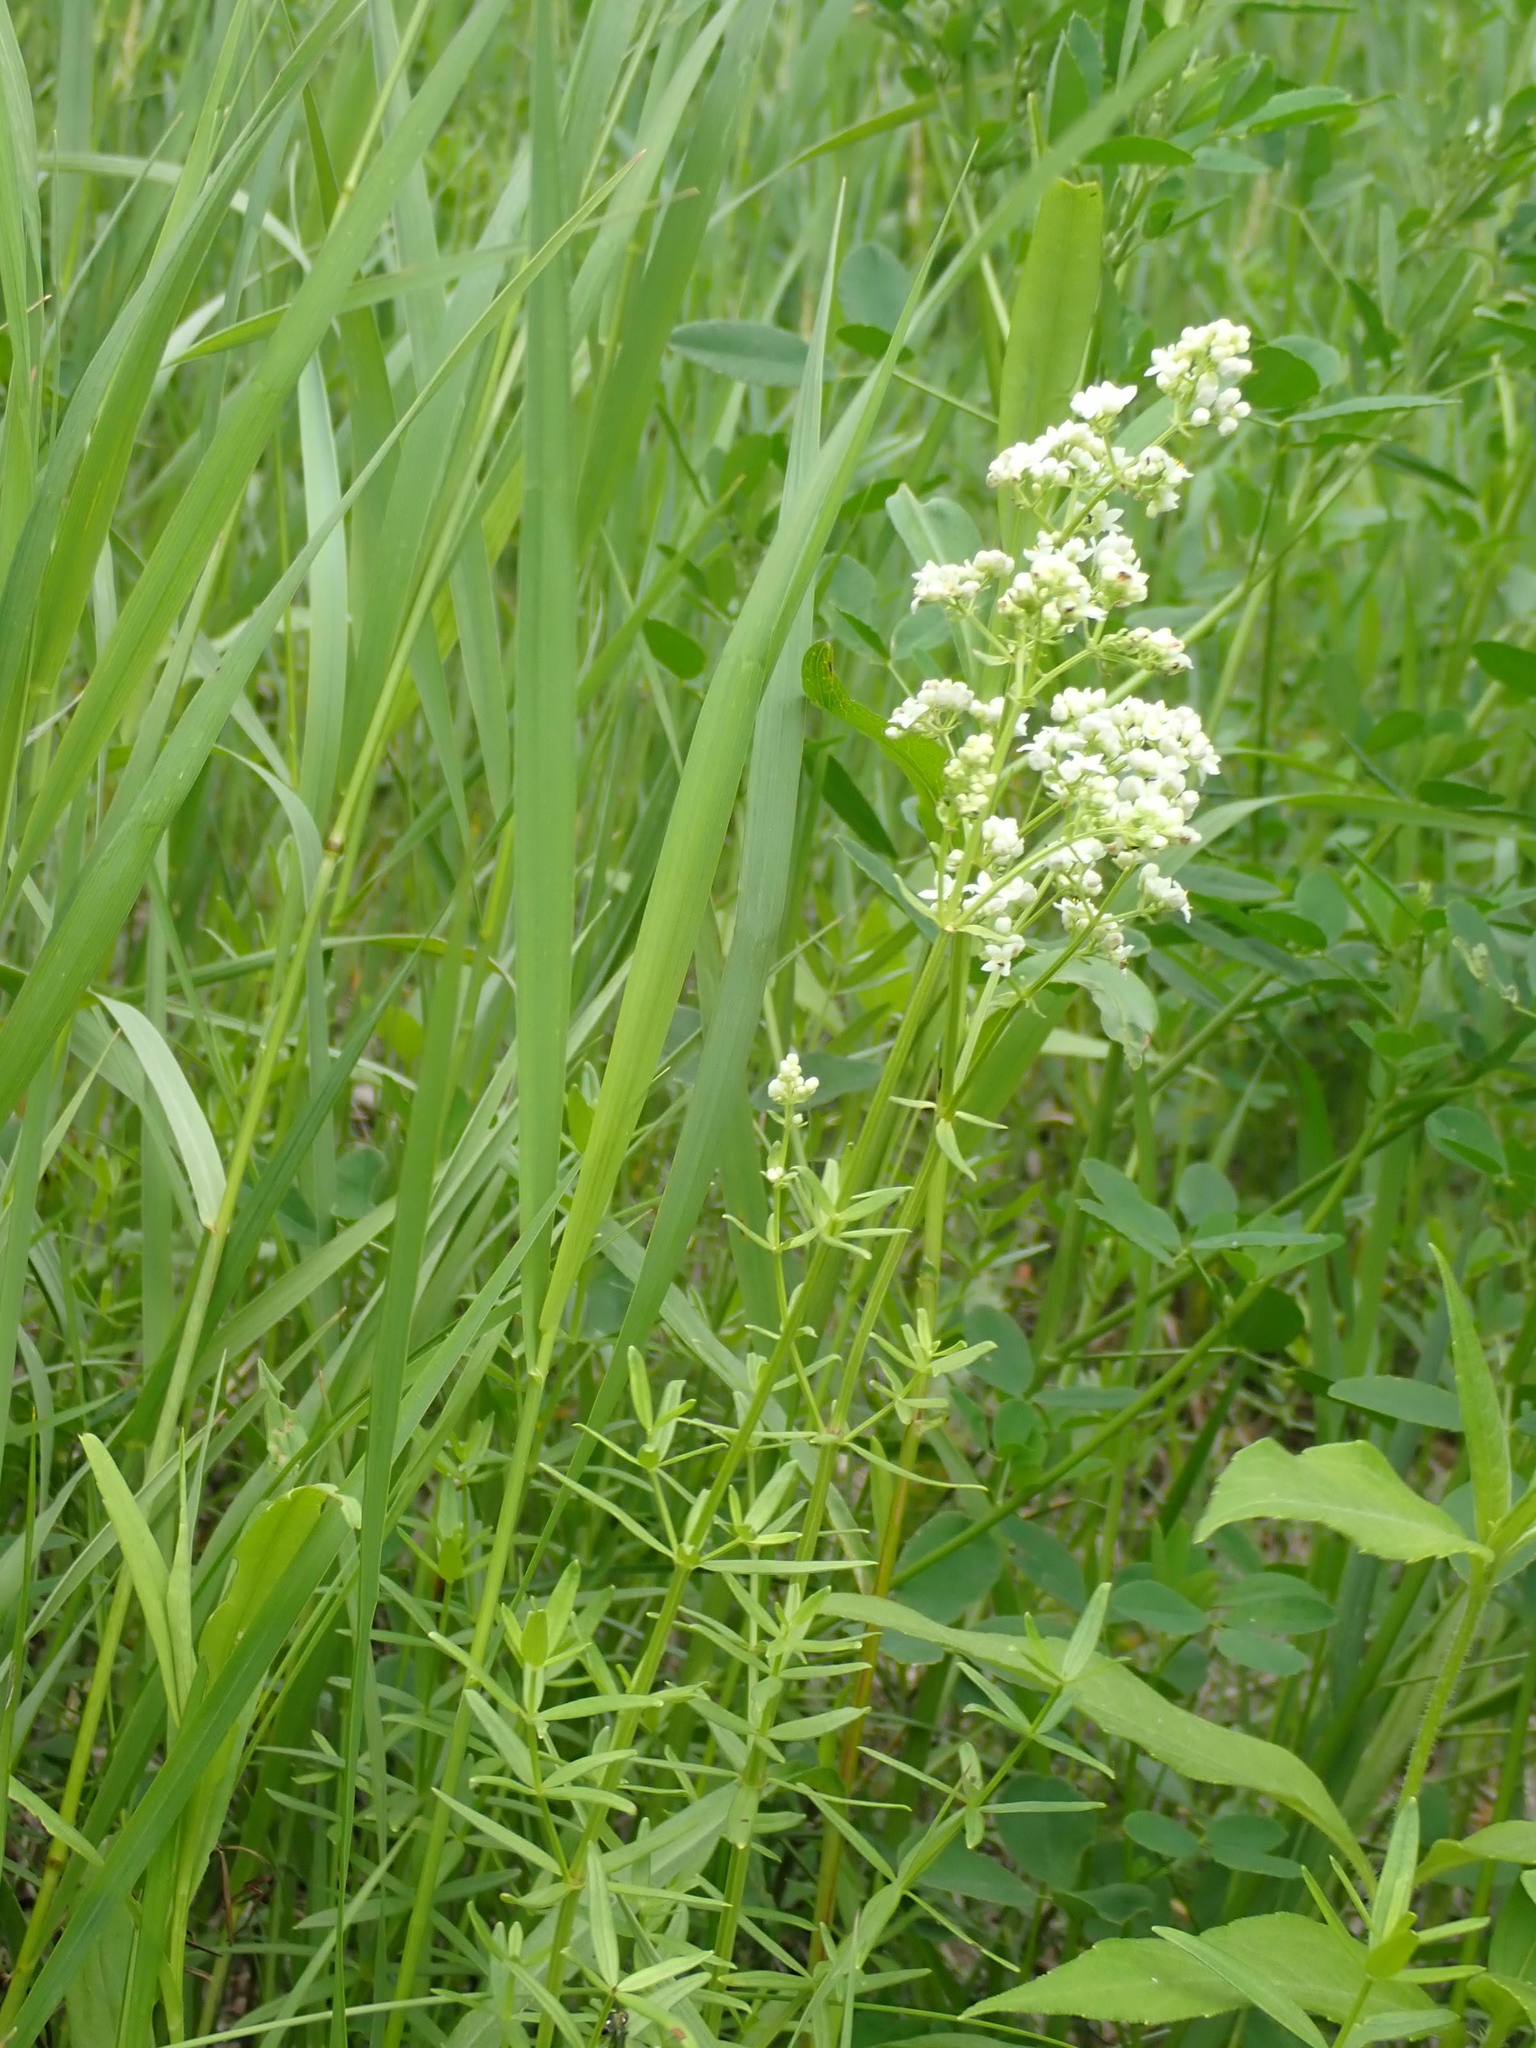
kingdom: Plantae
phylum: Tracheophyta
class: Magnoliopsida
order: Gentianales
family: Rubiaceae
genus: Galium
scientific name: Galium boreale
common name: Northern bedstraw
